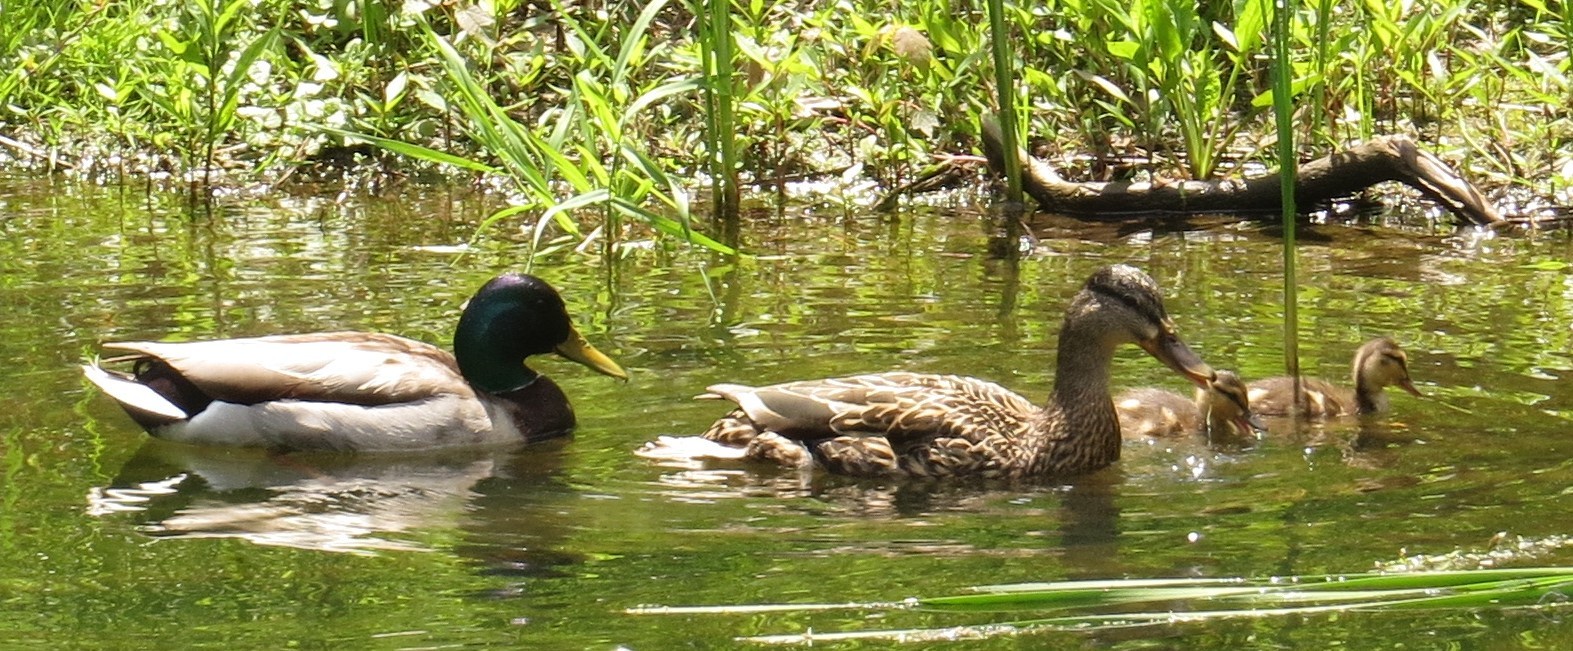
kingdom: Animalia
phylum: Chordata
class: Aves
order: Anseriformes
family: Anatidae
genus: Anas
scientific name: Anas platyrhynchos
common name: Mallard
